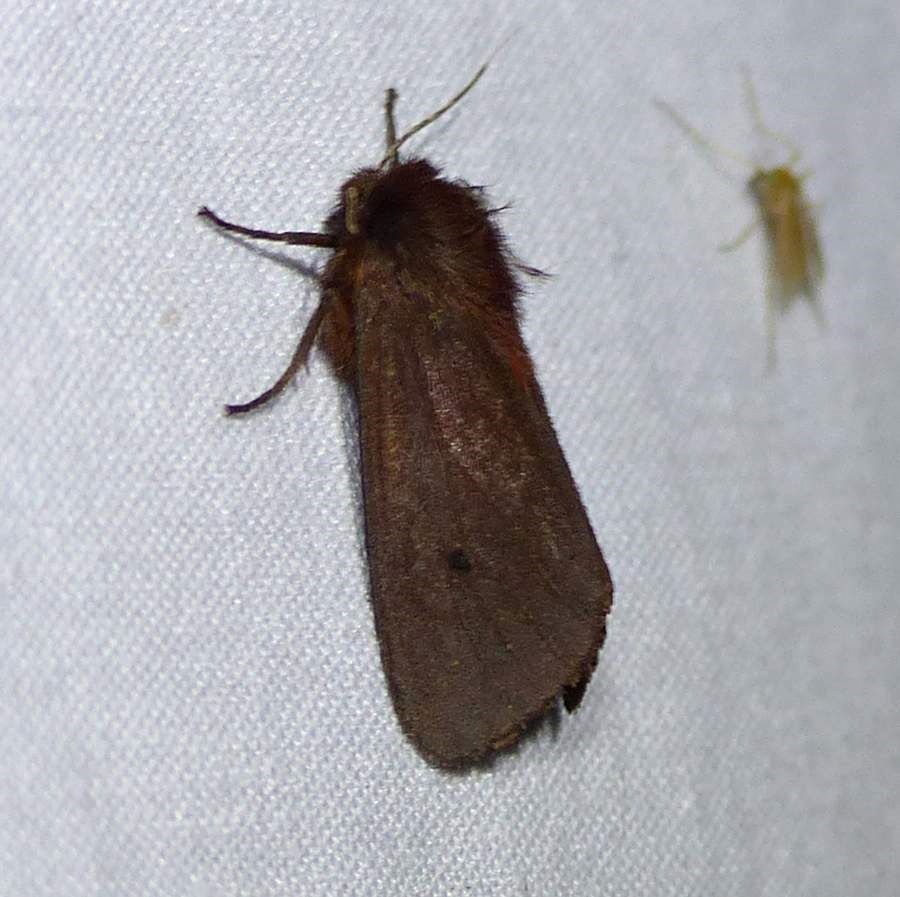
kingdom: Animalia
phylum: Arthropoda
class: Insecta
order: Lepidoptera
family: Erebidae
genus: Phragmatobia
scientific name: Phragmatobia fuliginosa
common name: Ruby tiger
